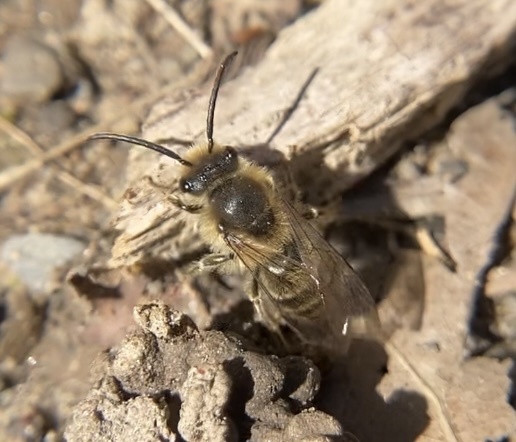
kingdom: Animalia
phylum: Arthropoda
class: Insecta
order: Hymenoptera
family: Colletidae
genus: Colletes
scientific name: Colletes inaequalis
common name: Unequal cellophane bee
